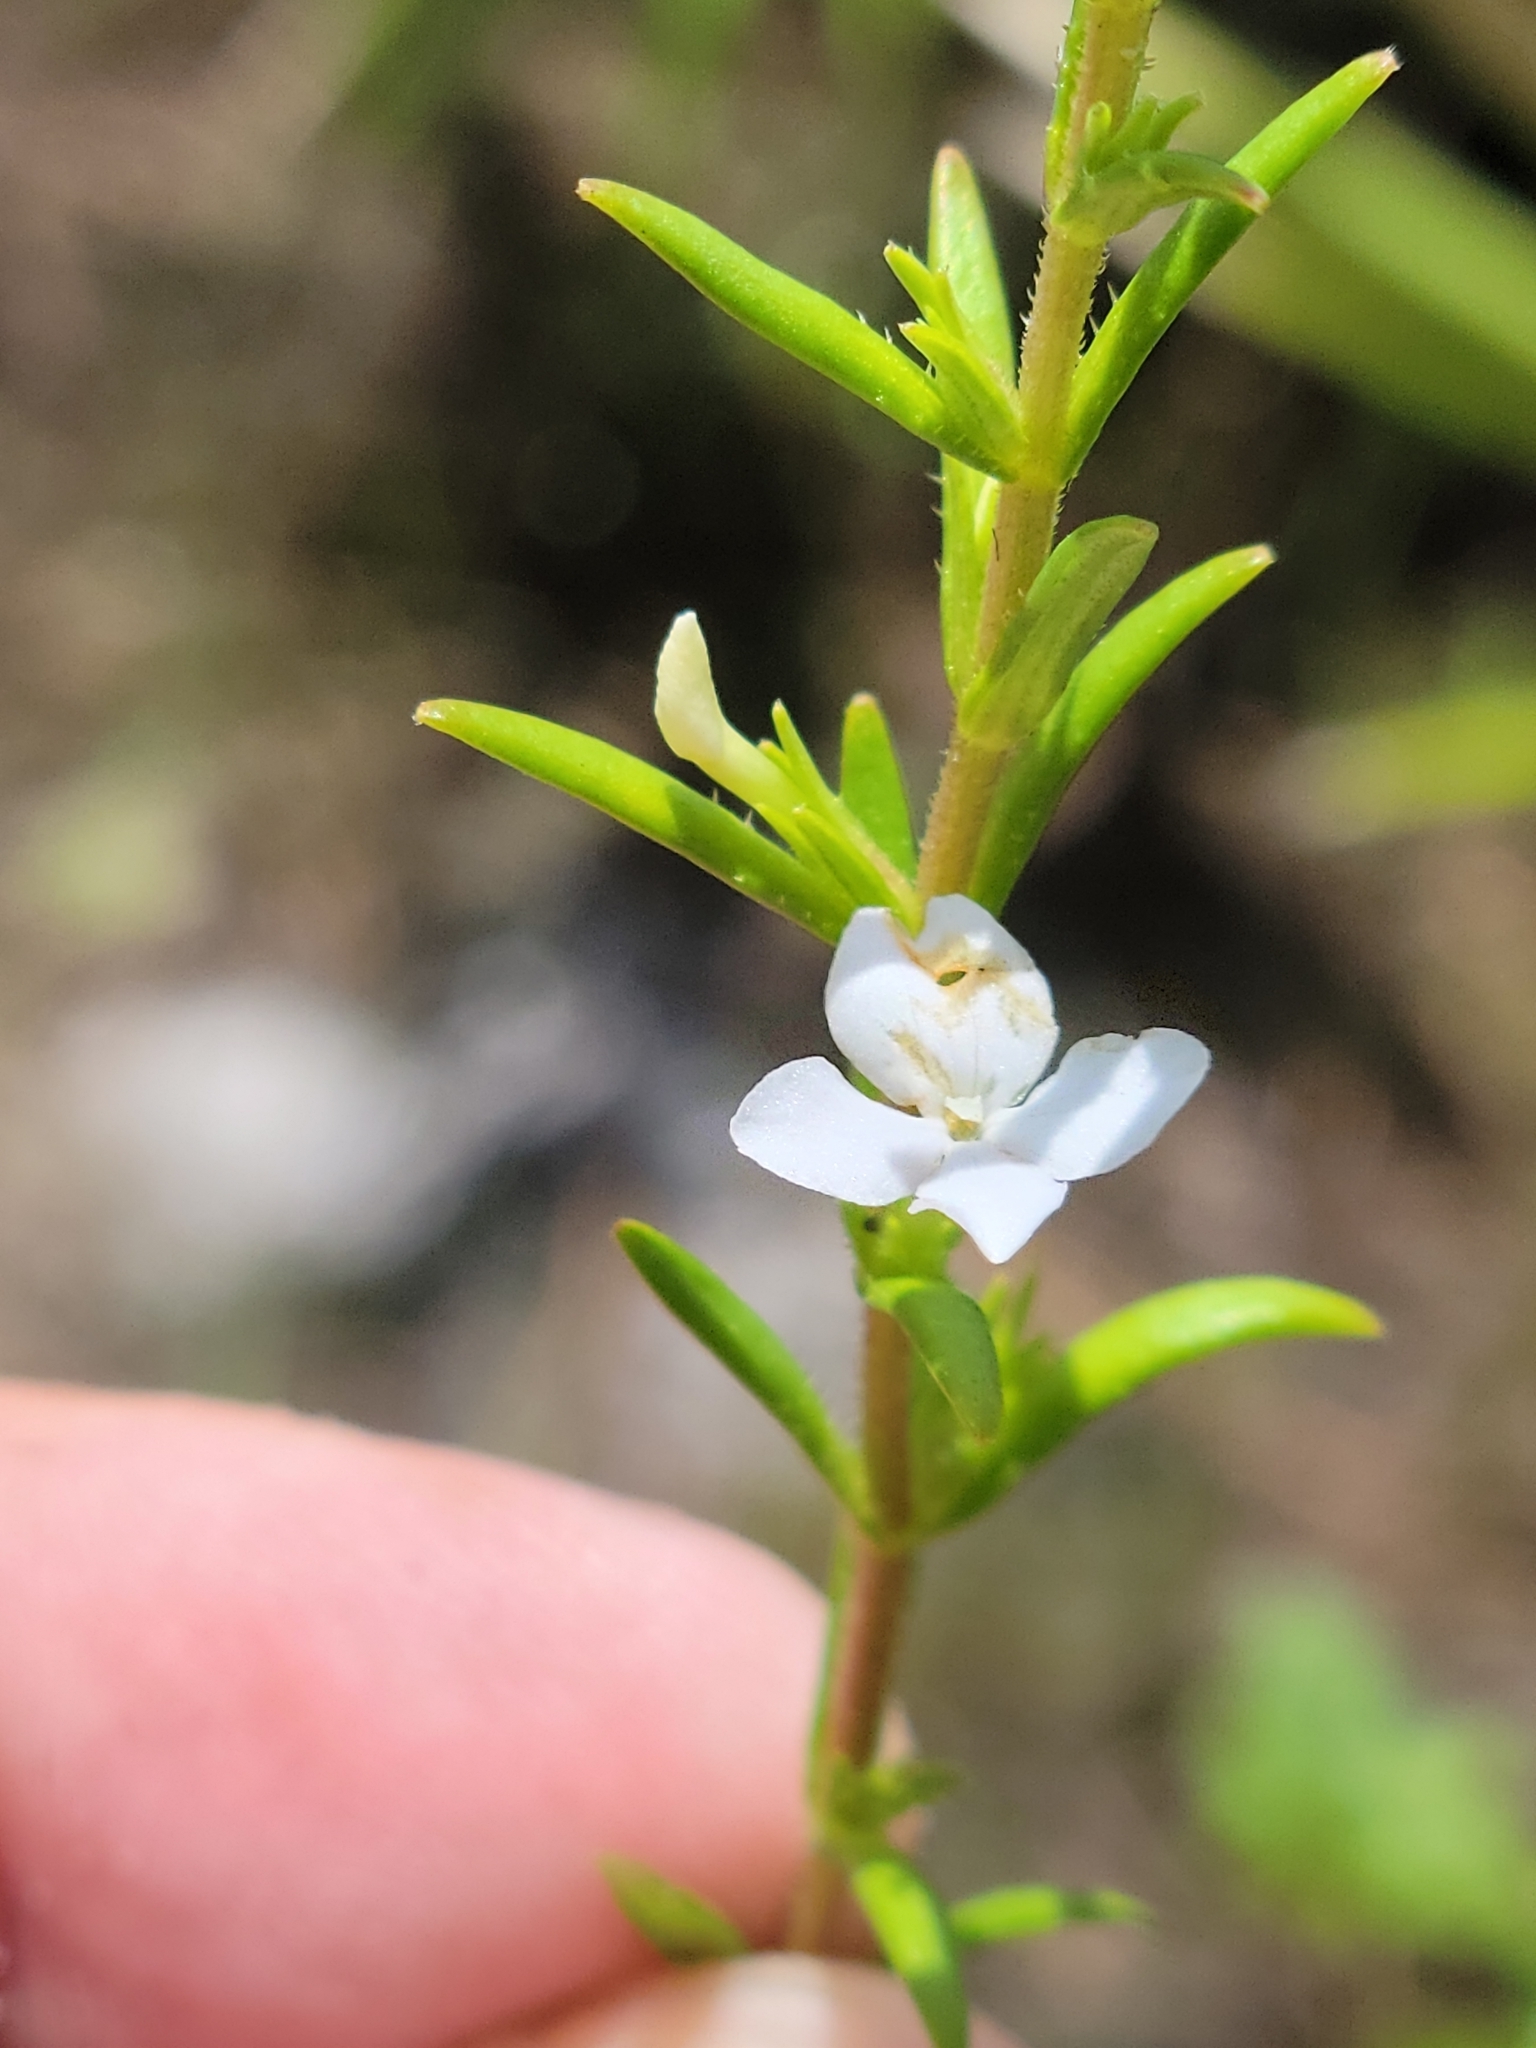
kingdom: Plantae
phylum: Tracheophyta
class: Magnoliopsida
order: Lamiales
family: Plantaginaceae
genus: Gratiola
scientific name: Gratiola hispida
